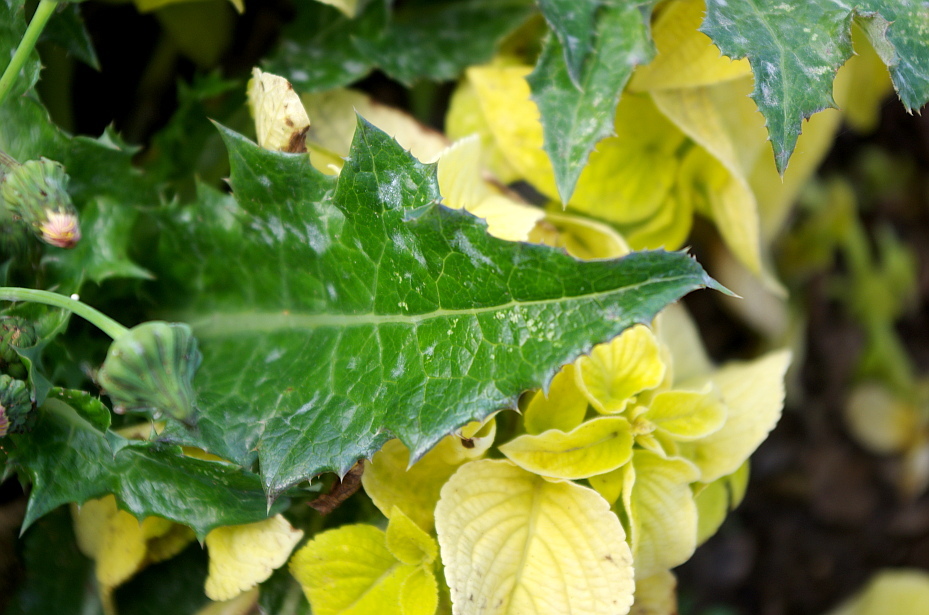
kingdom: Plantae
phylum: Tracheophyta
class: Magnoliopsida
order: Asterales
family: Asteraceae
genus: Sonchus
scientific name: Sonchus asper
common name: Prickly sow-thistle
